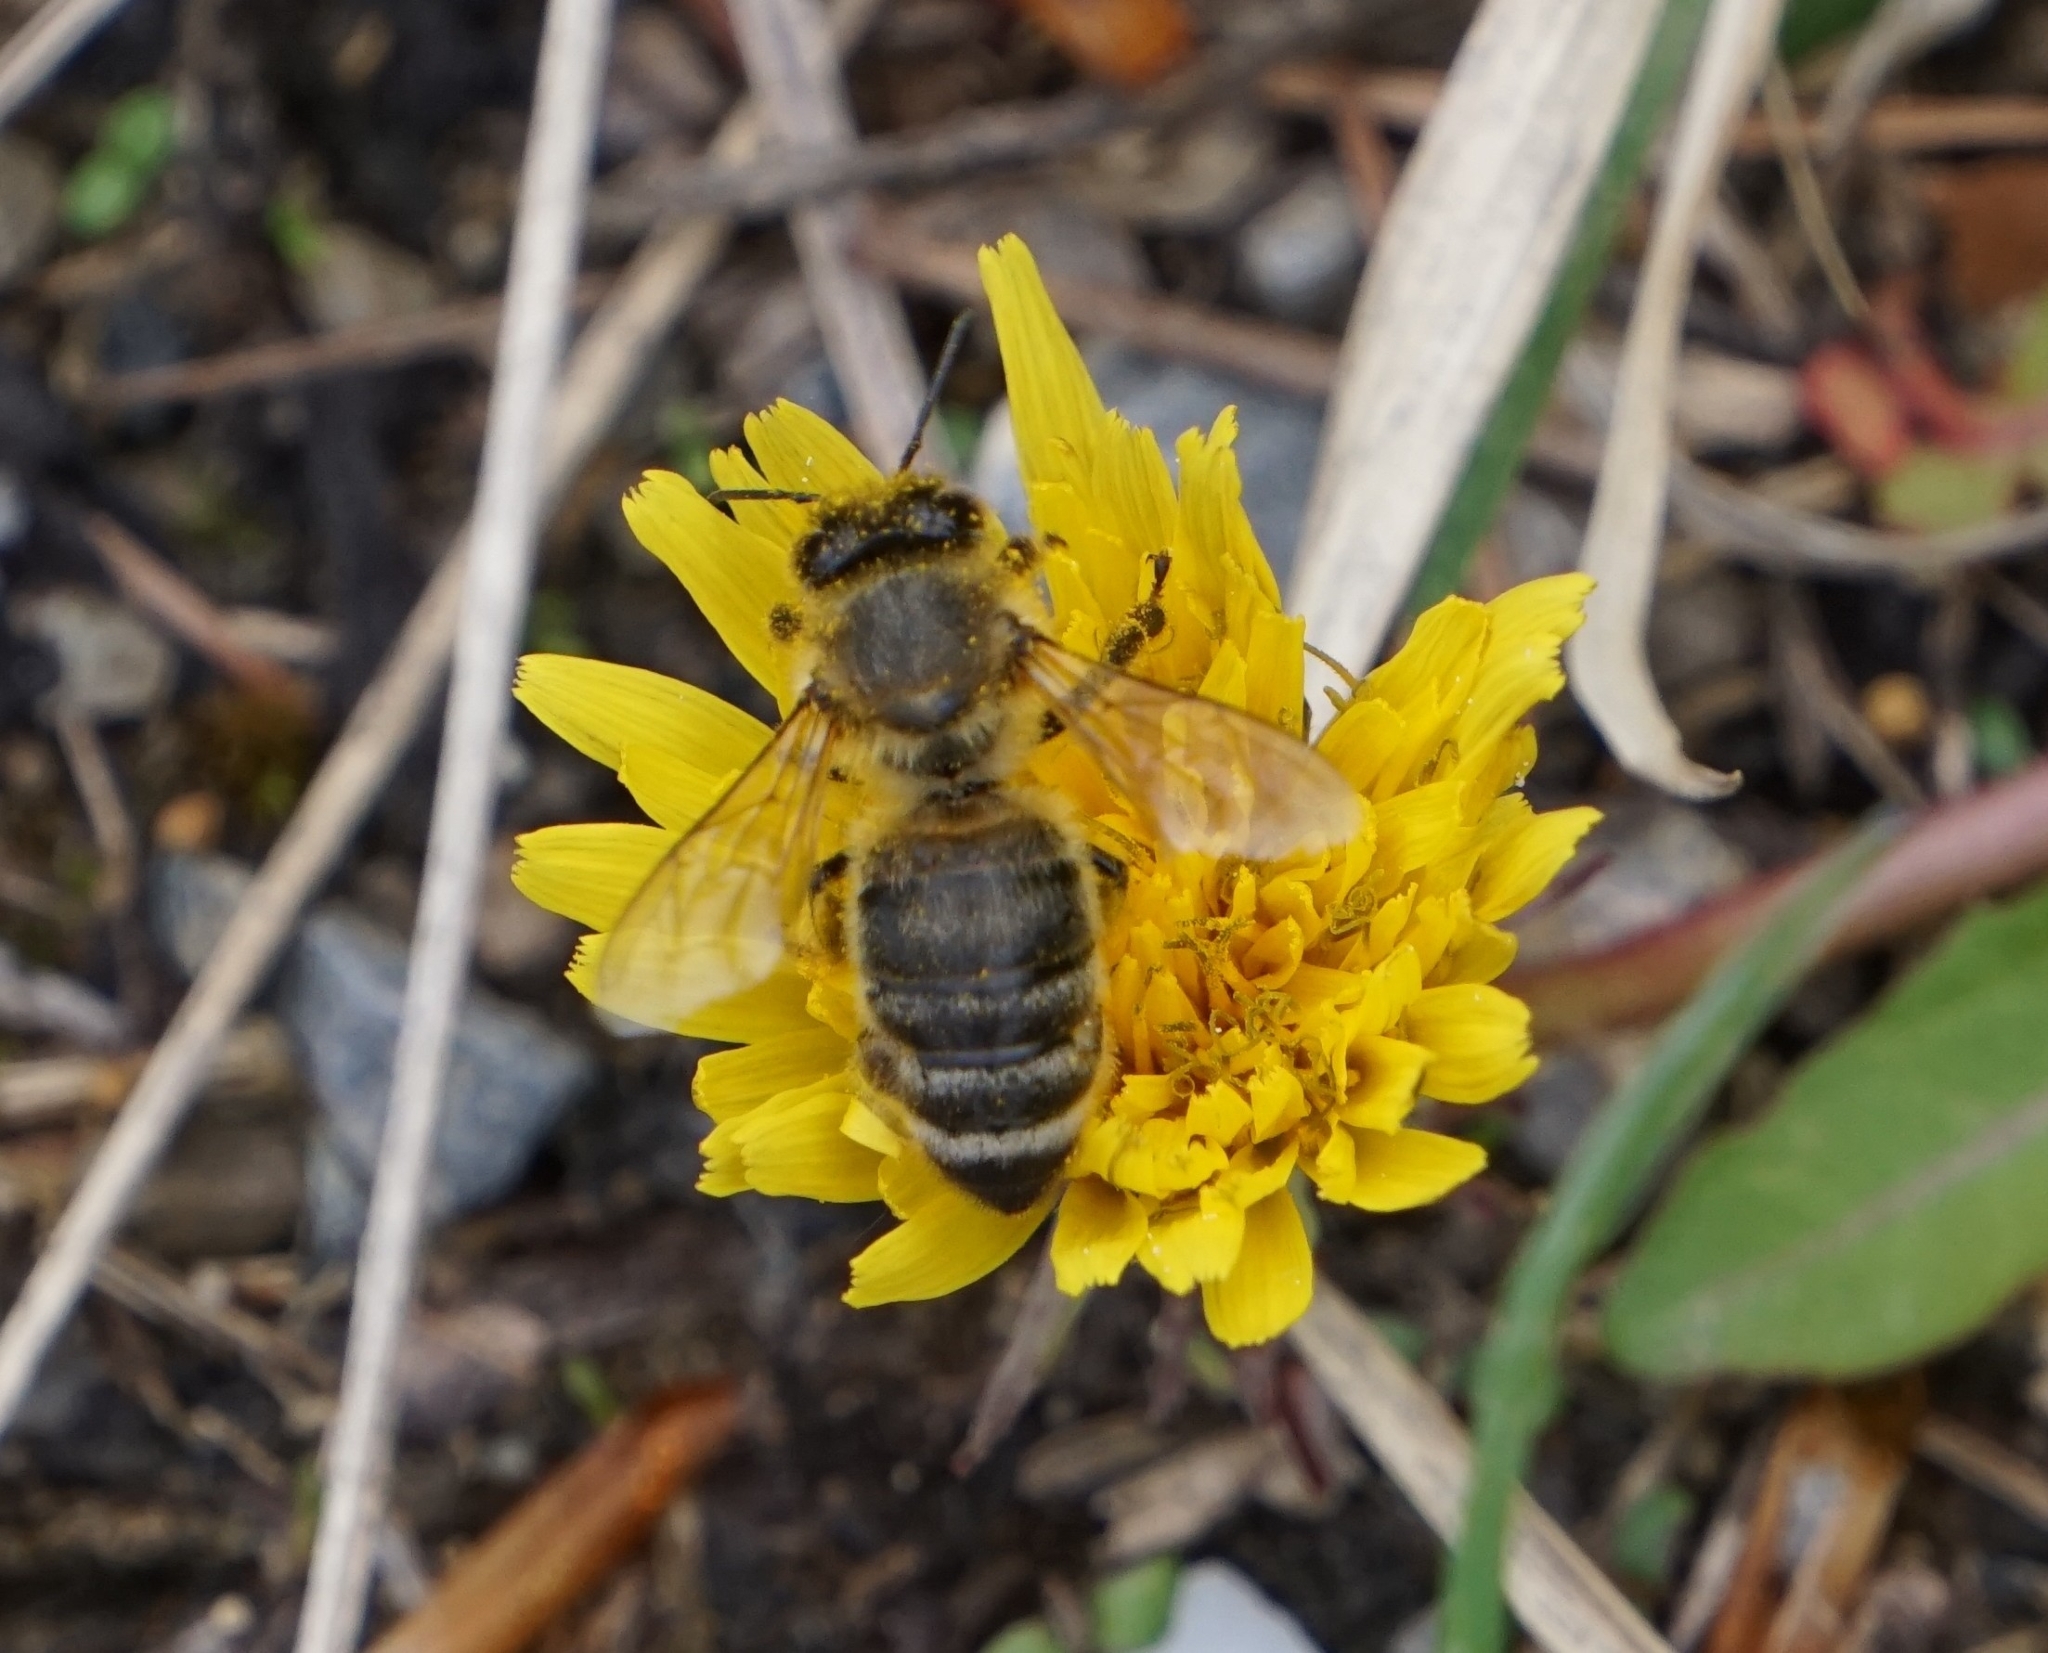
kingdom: Animalia
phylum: Arthropoda
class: Insecta
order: Hymenoptera
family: Apidae
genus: Apis
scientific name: Apis mellifera
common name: Honey bee
